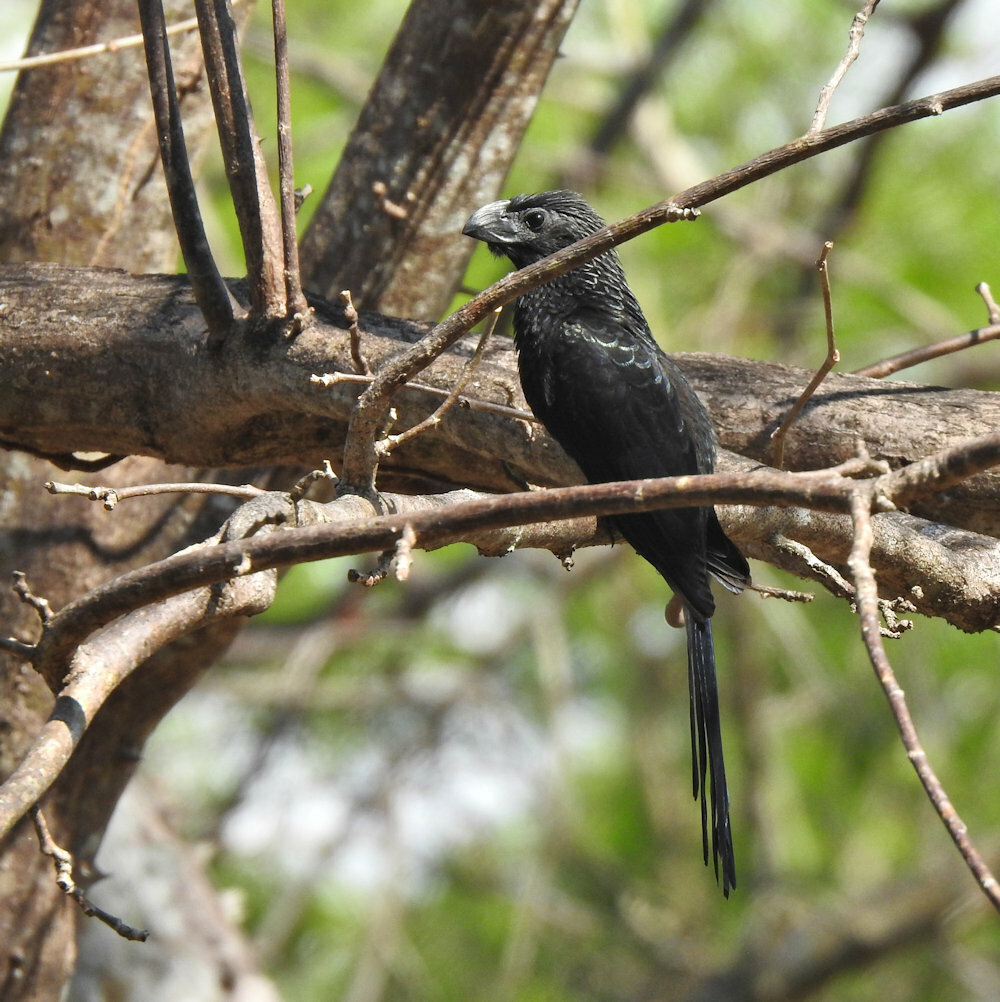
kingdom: Animalia
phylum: Chordata
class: Aves
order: Cuculiformes
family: Cuculidae
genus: Crotophaga
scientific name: Crotophaga sulcirostris
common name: Groove-billed ani
